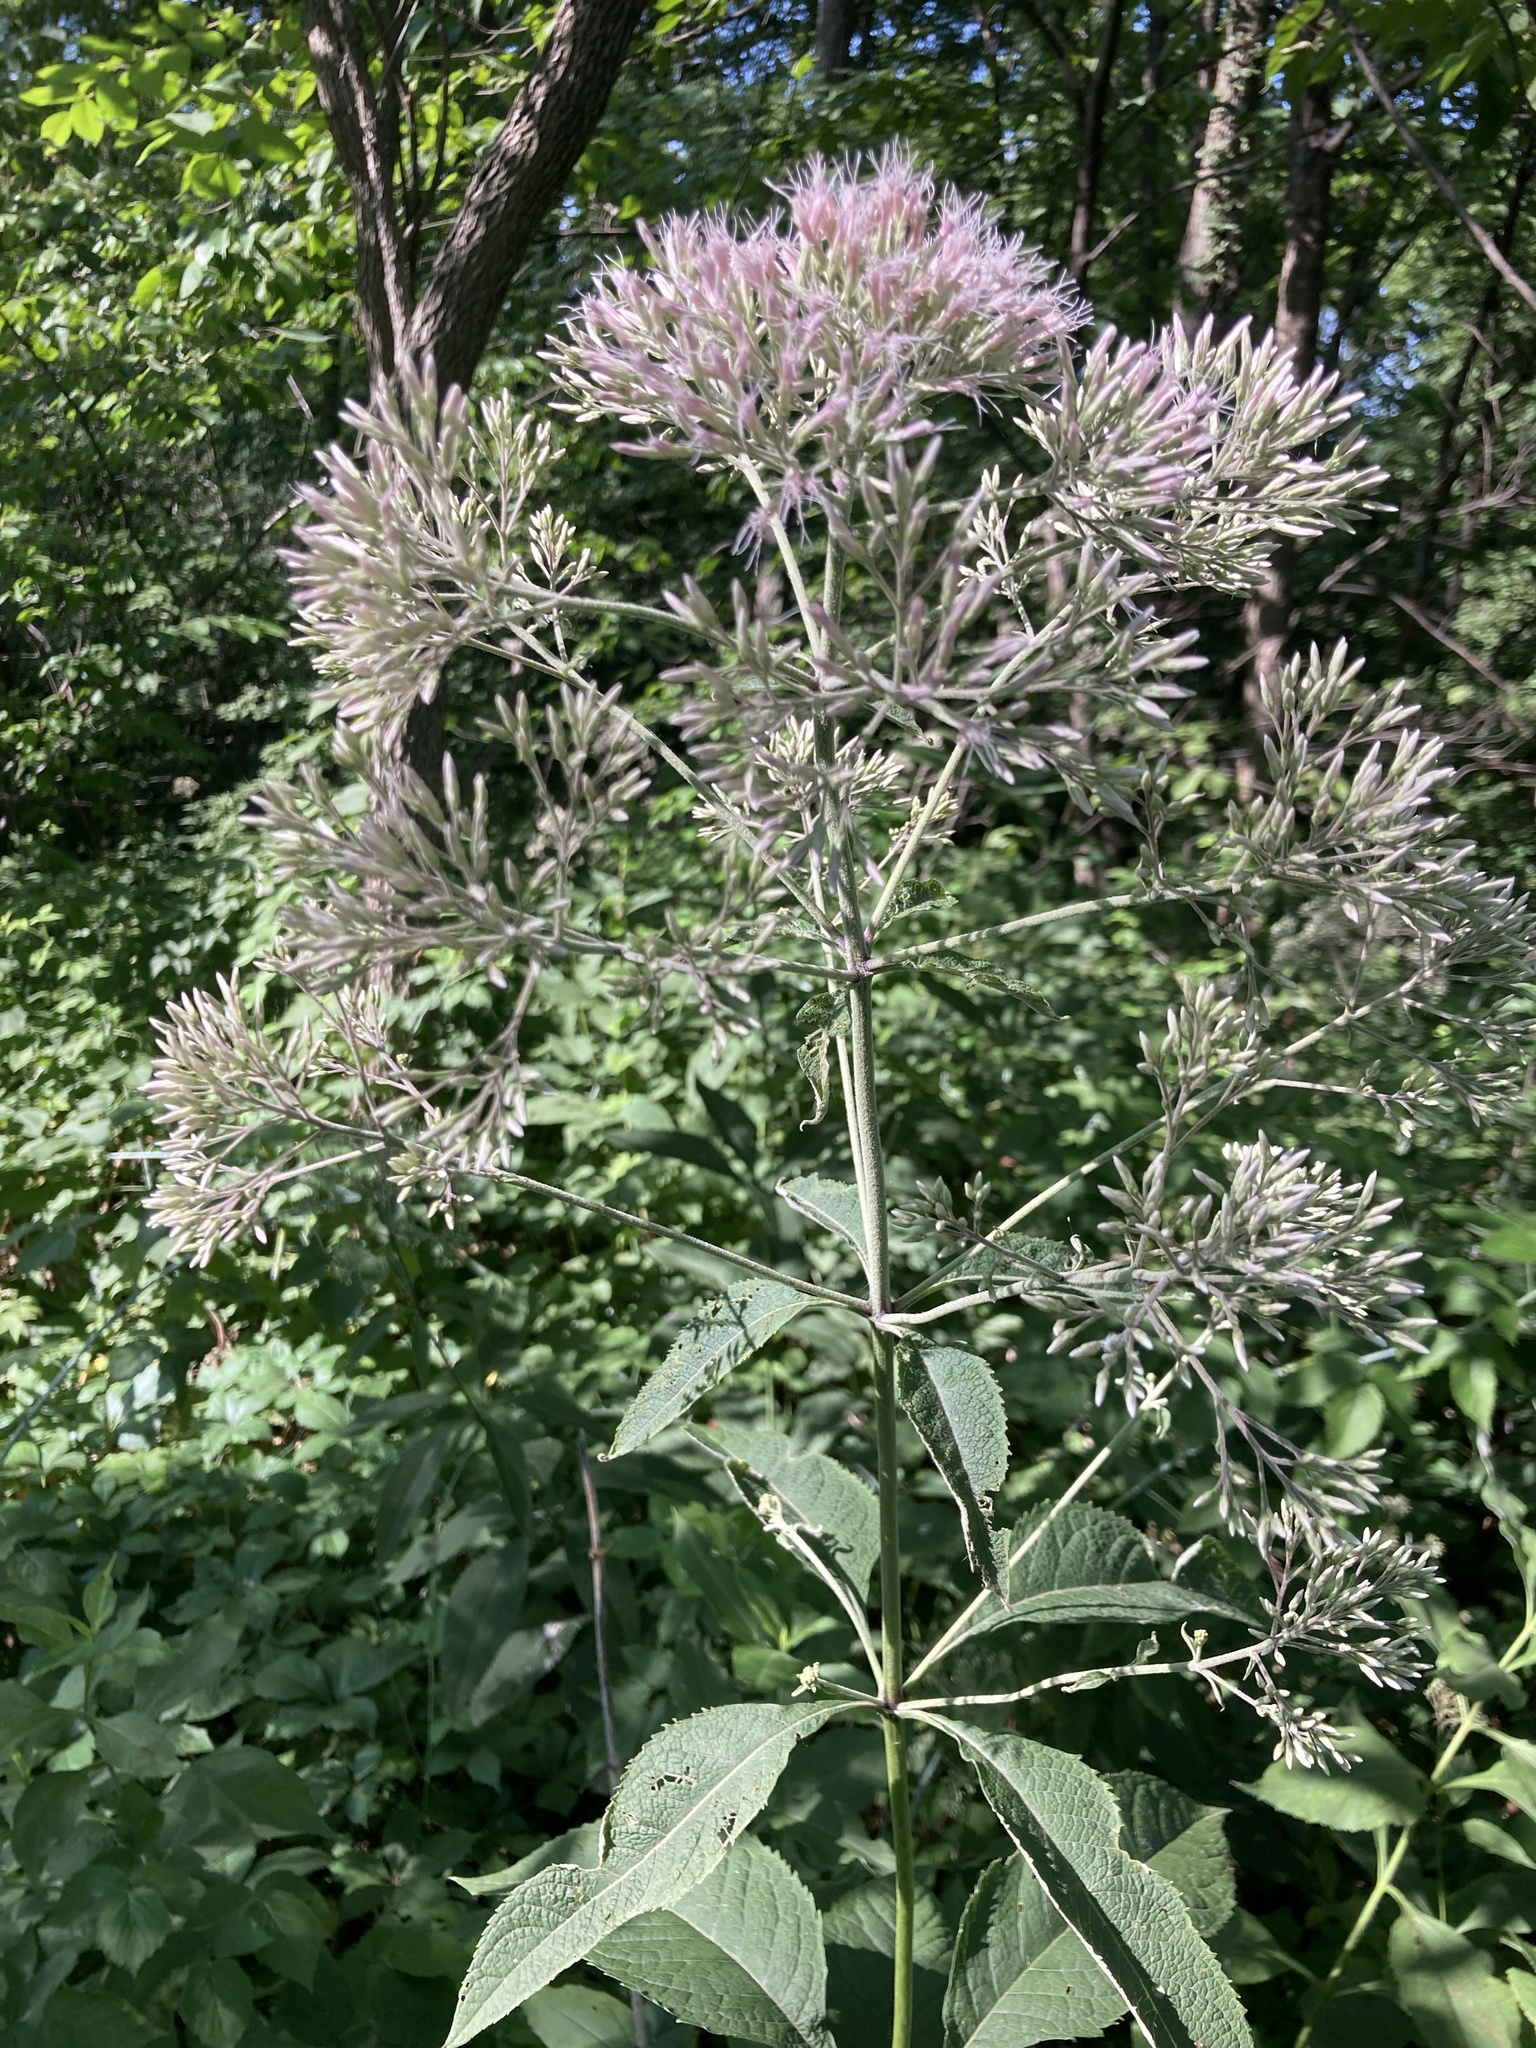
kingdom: Plantae
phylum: Tracheophyta
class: Magnoliopsida
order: Asterales
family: Asteraceae
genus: Eutrochium
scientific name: Eutrochium purpureum
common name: Gravelroot
